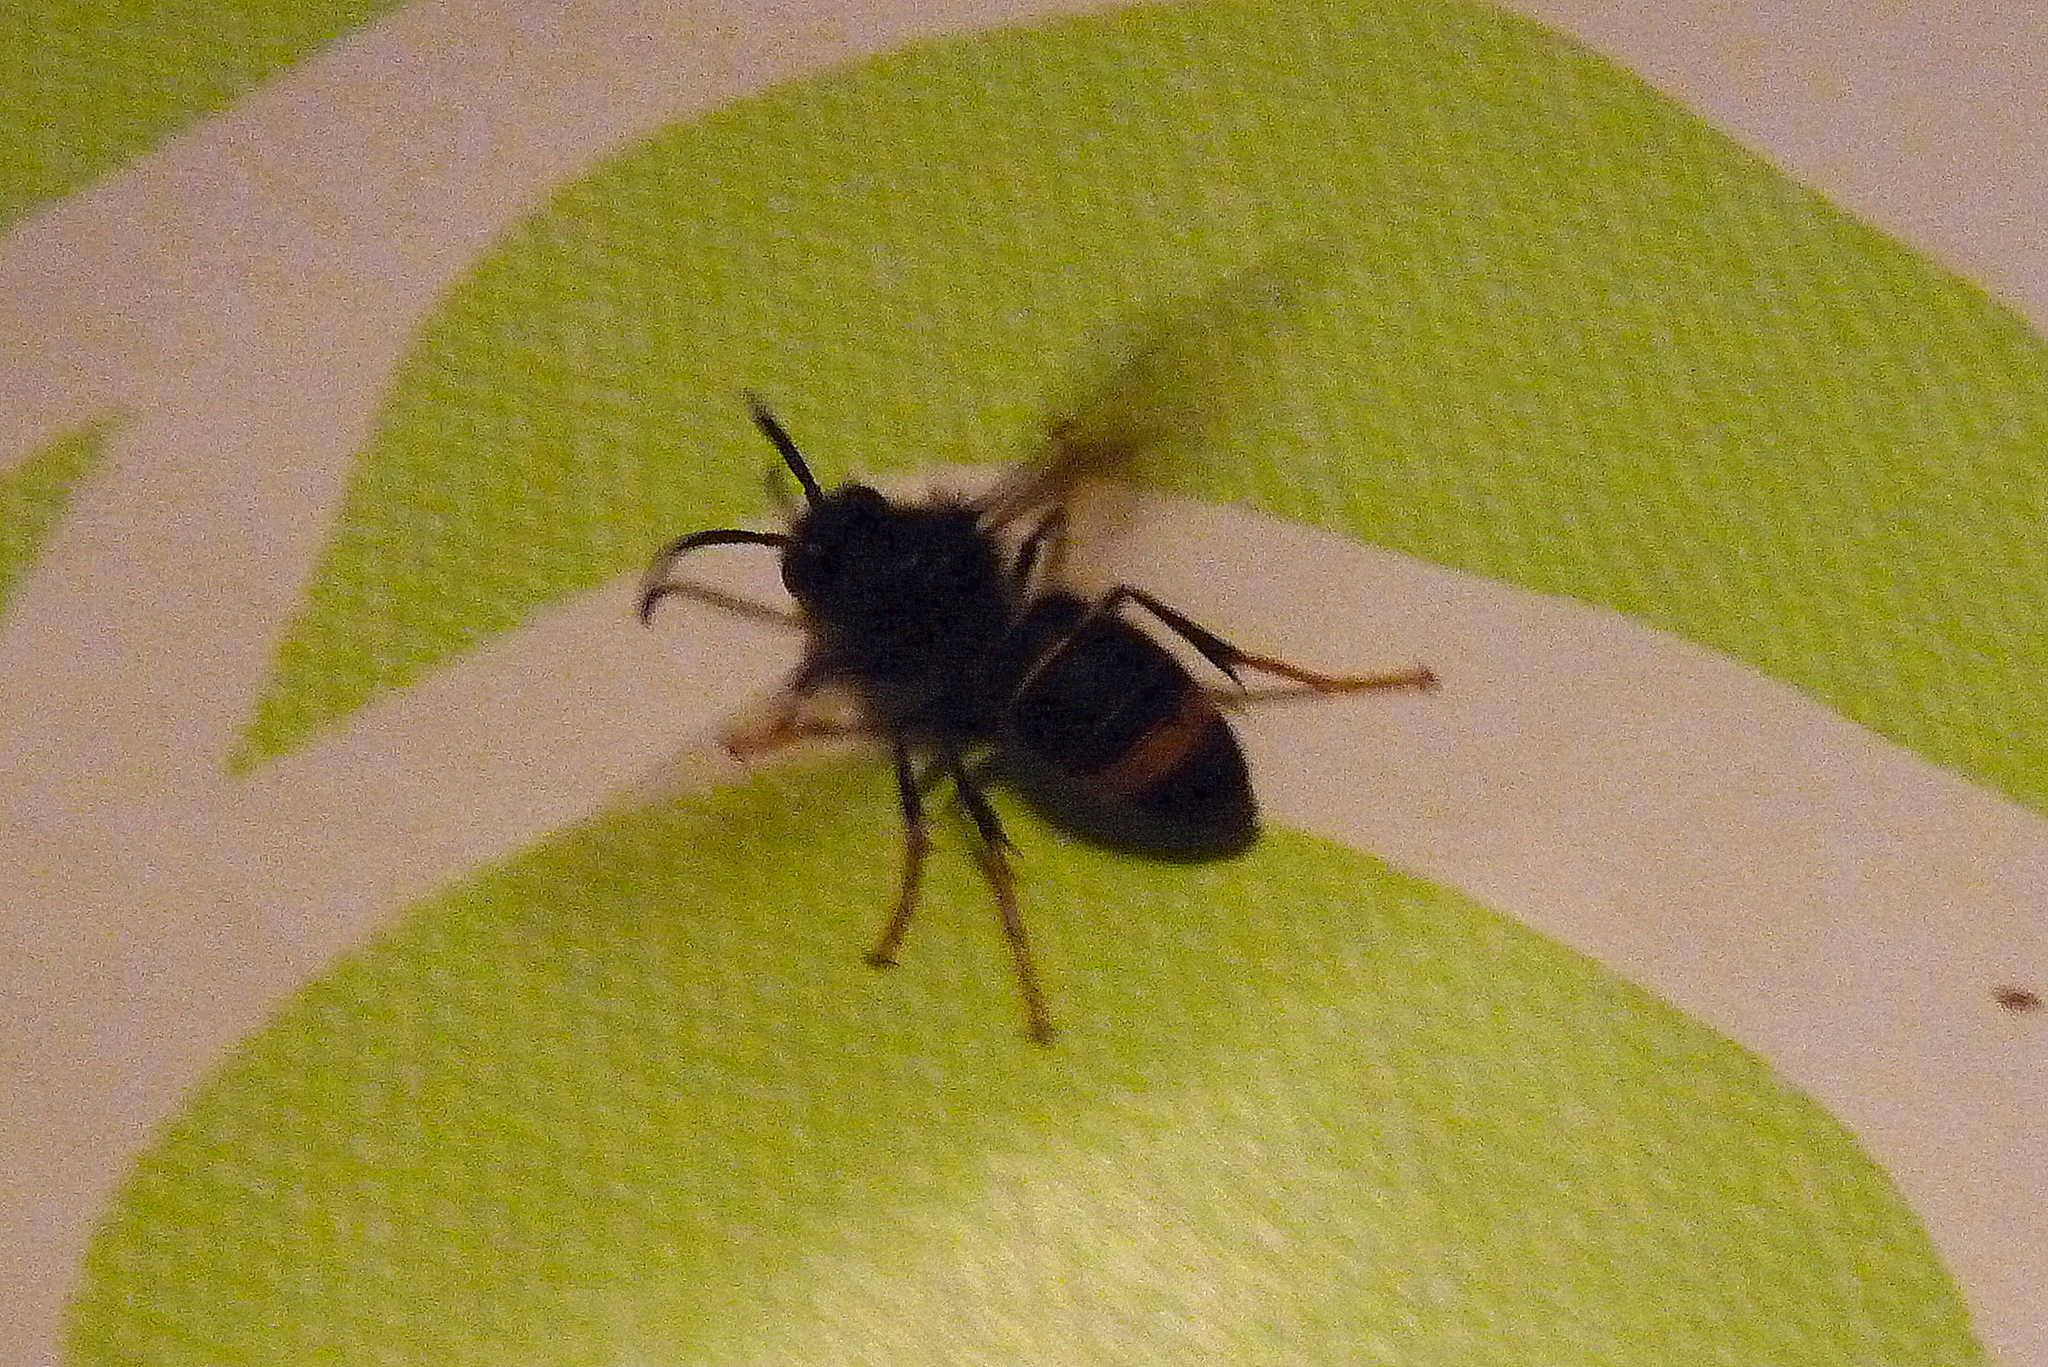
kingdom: Animalia
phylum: Arthropoda
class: Insecta
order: Hymenoptera
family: Vespidae
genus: Vespa
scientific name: Vespa velutina
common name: Asian hornet
